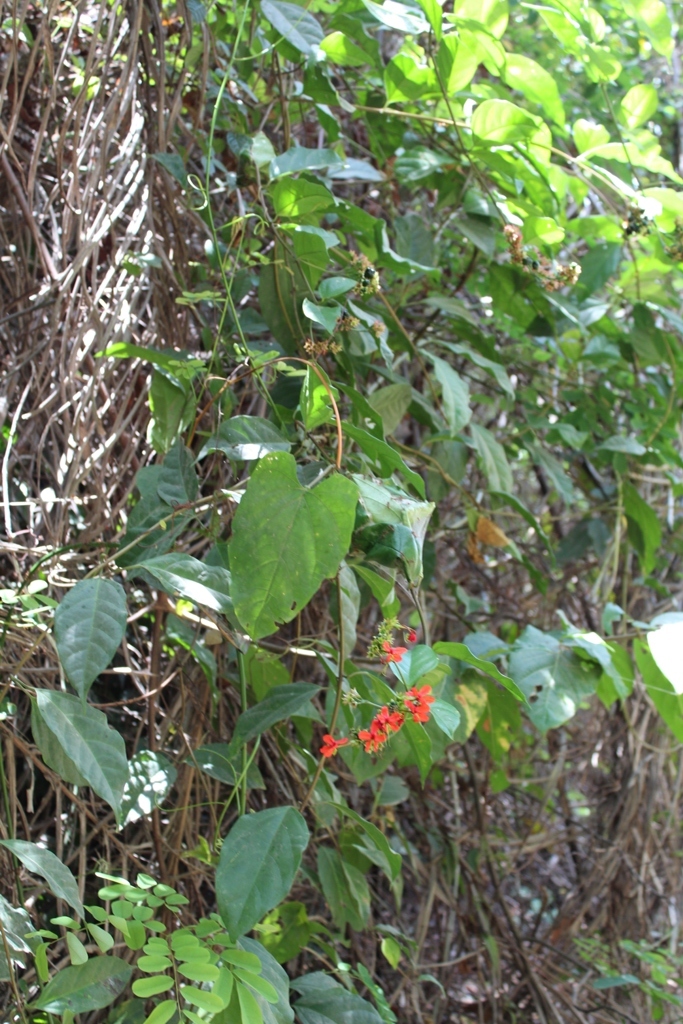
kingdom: Plantae
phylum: Tracheophyta
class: Magnoliopsida
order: Lamiales
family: Lamiaceae
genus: Clerodendrum
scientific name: Clerodendrum splendens
